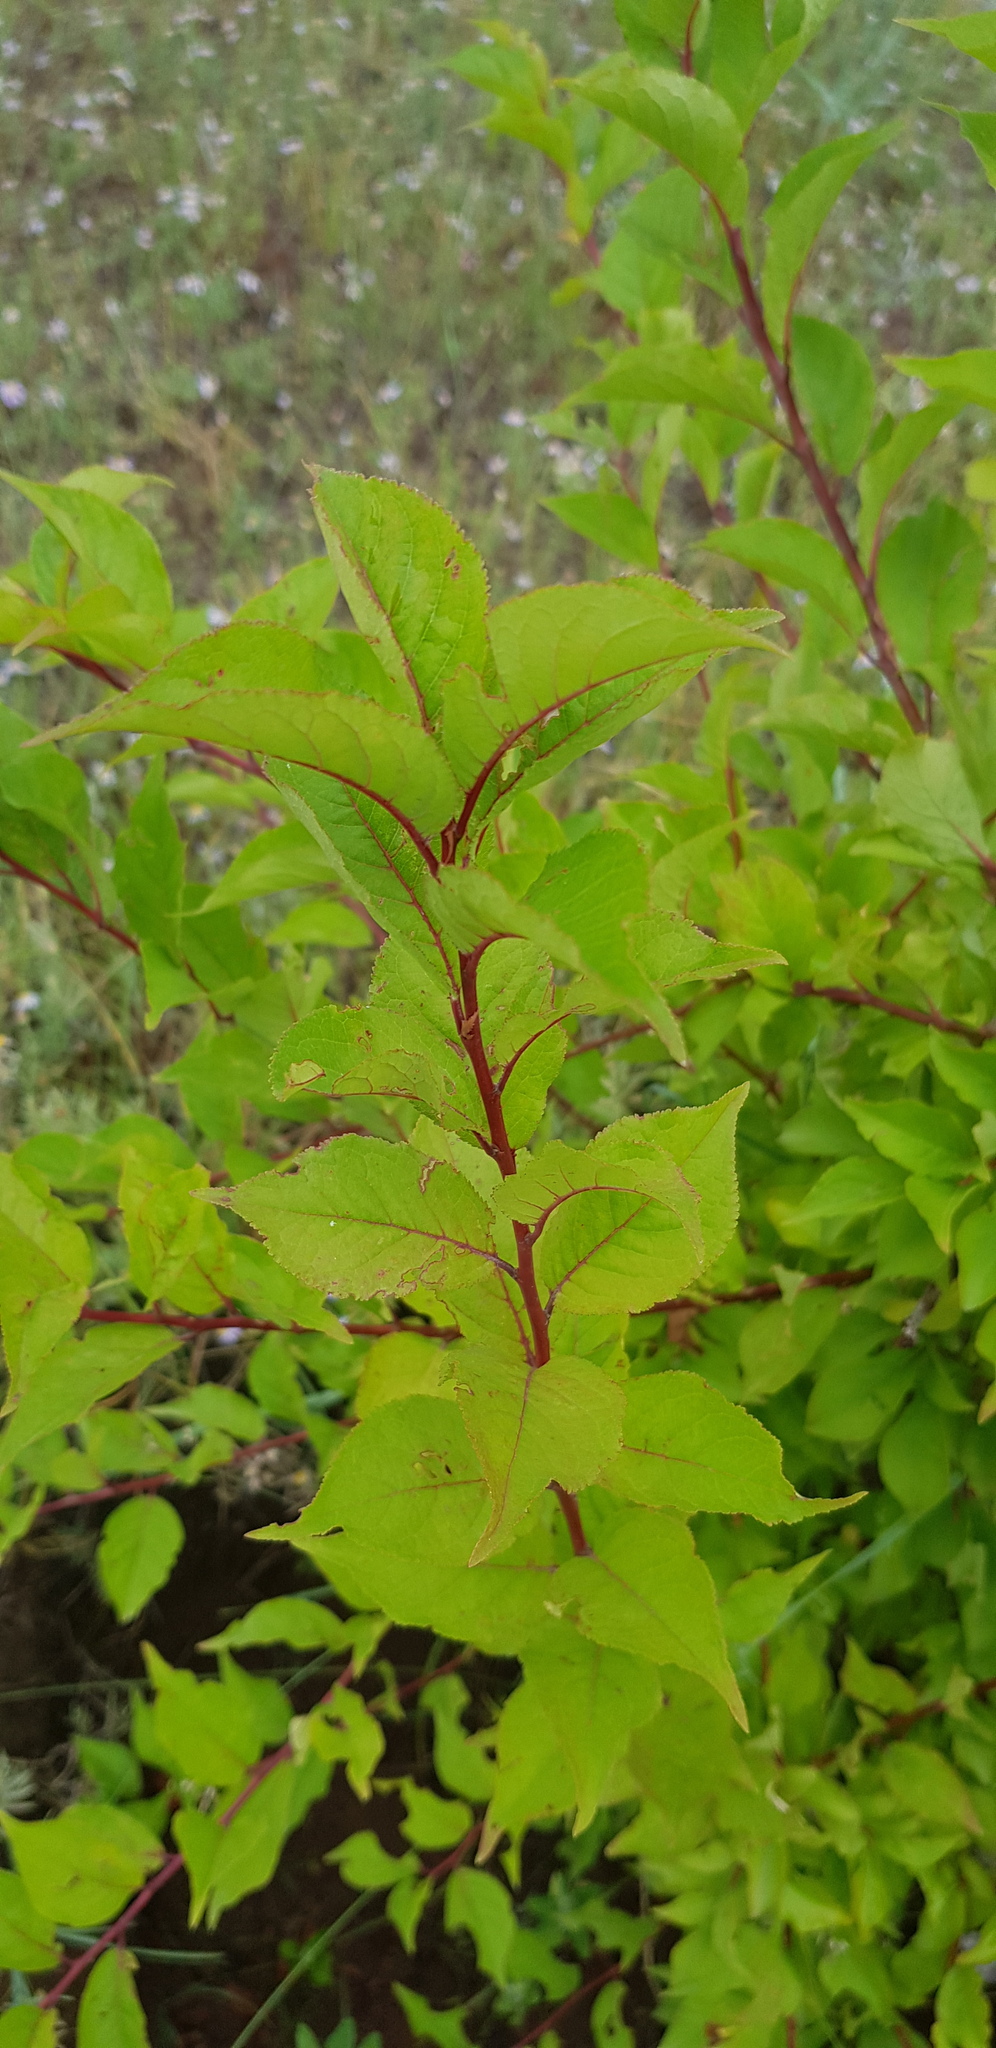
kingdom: Plantae
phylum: Tracheophyta
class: Magnoliopsida
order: Rosales
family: Rosaceae
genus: Prunus
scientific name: Prunus serotina
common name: Black cherry
